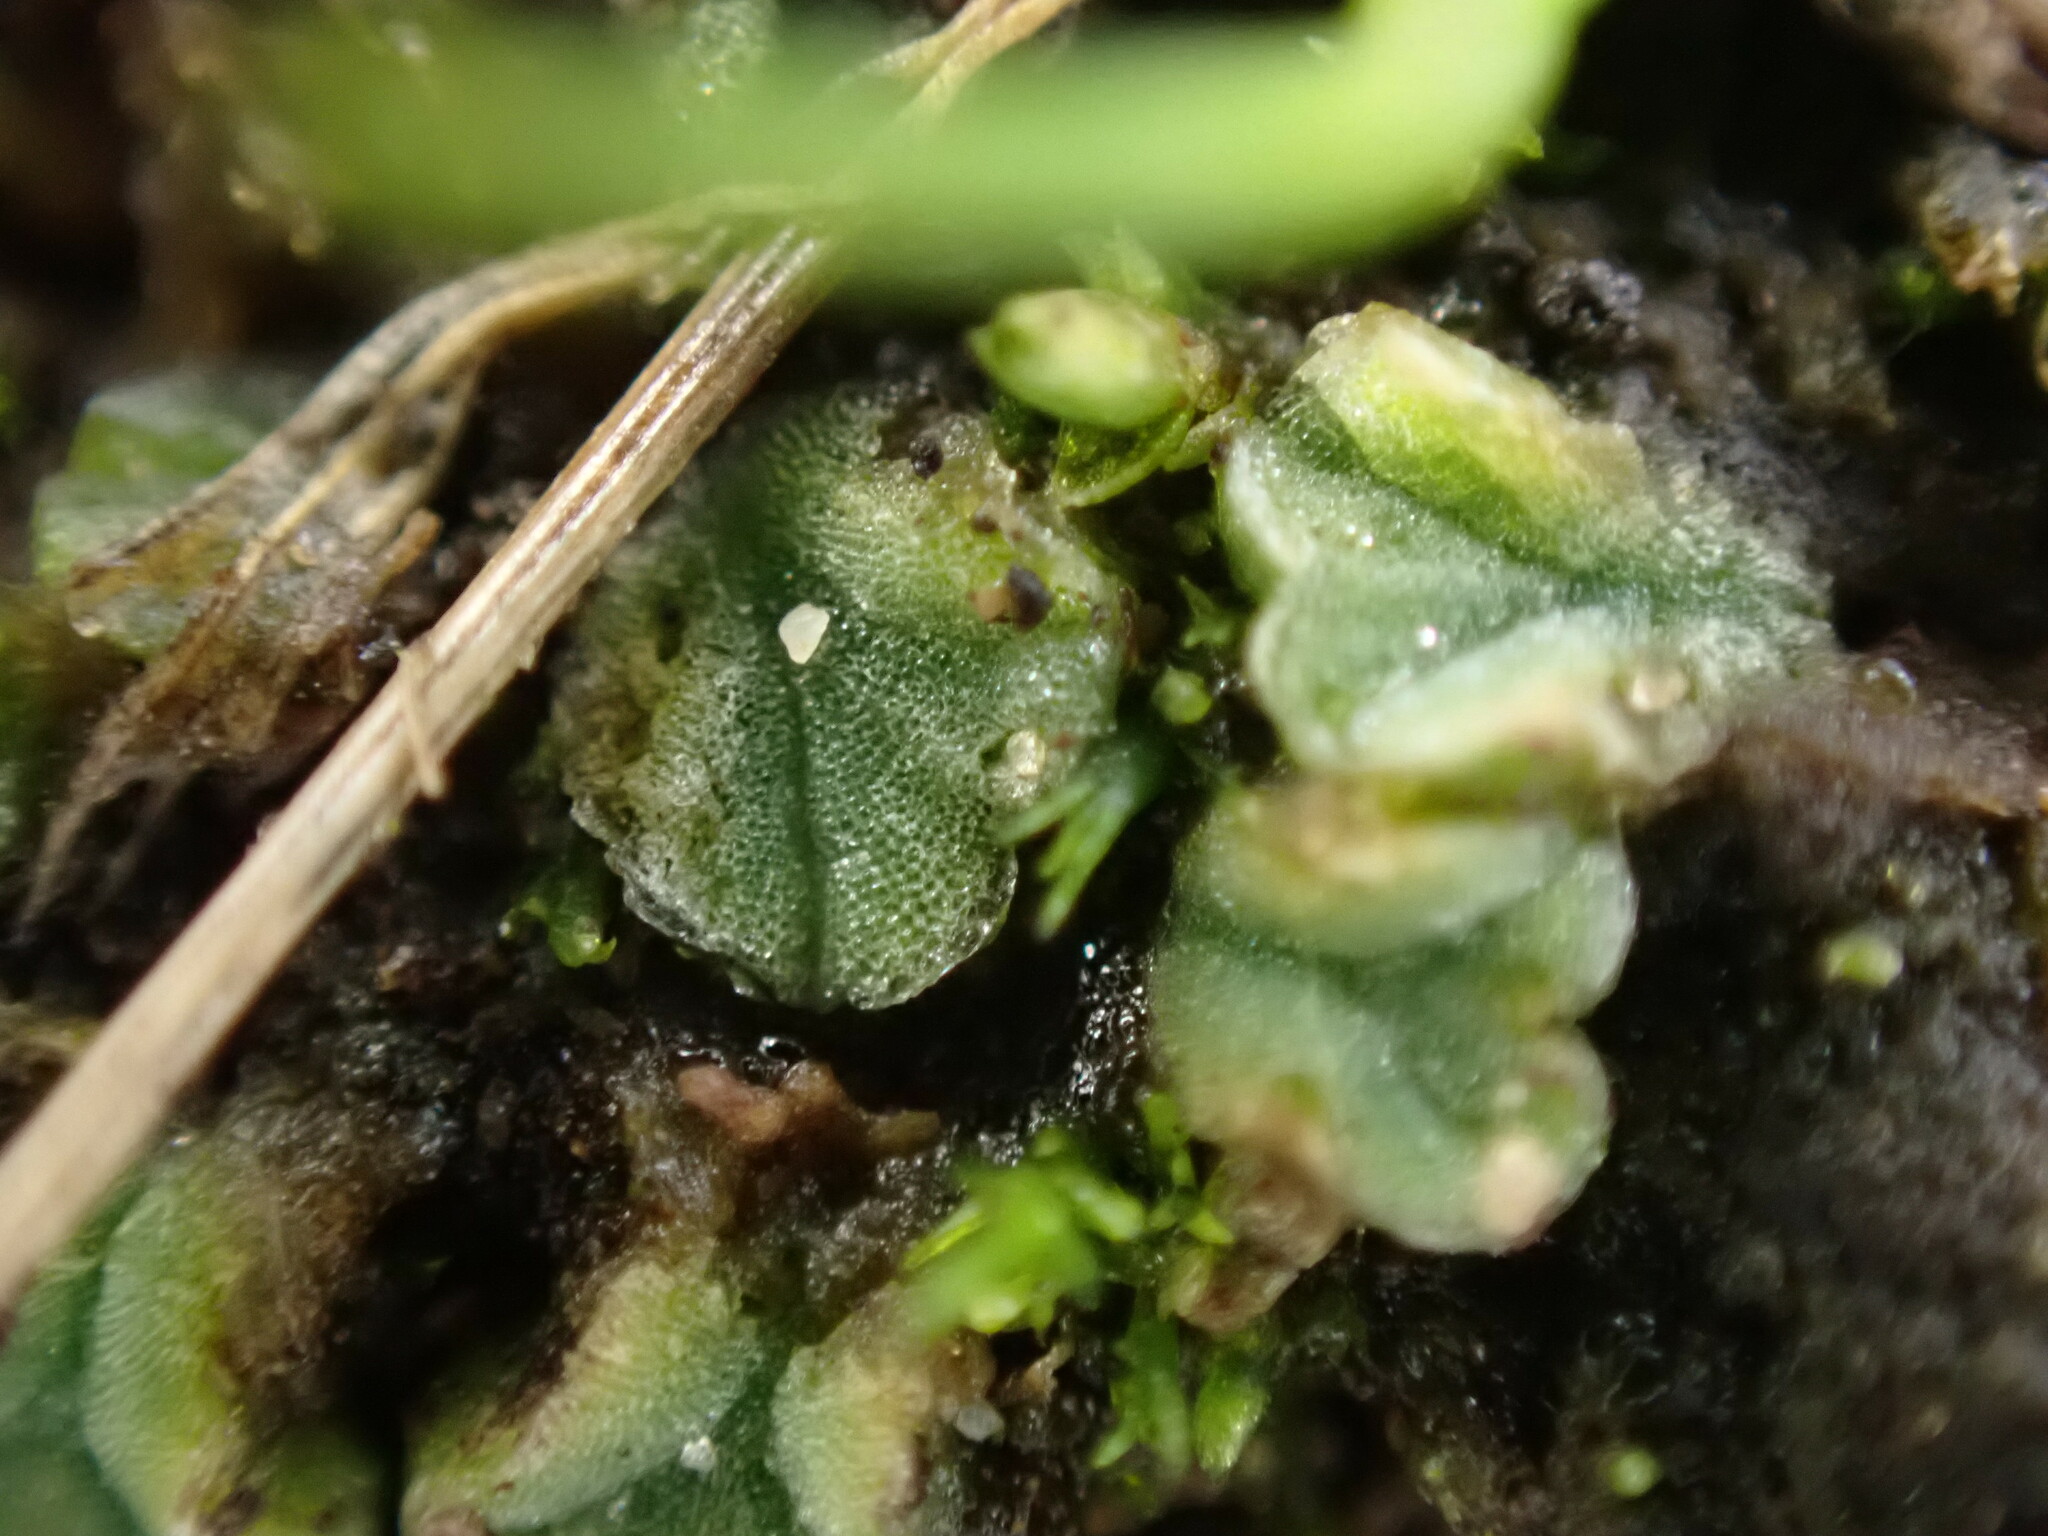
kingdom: Plantae
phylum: Marchantiophyta
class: Marchantiopsida
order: Marchantiales
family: Ricciaceae
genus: Riccia
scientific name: Riccia sorocarpa
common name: Common crystalwort
